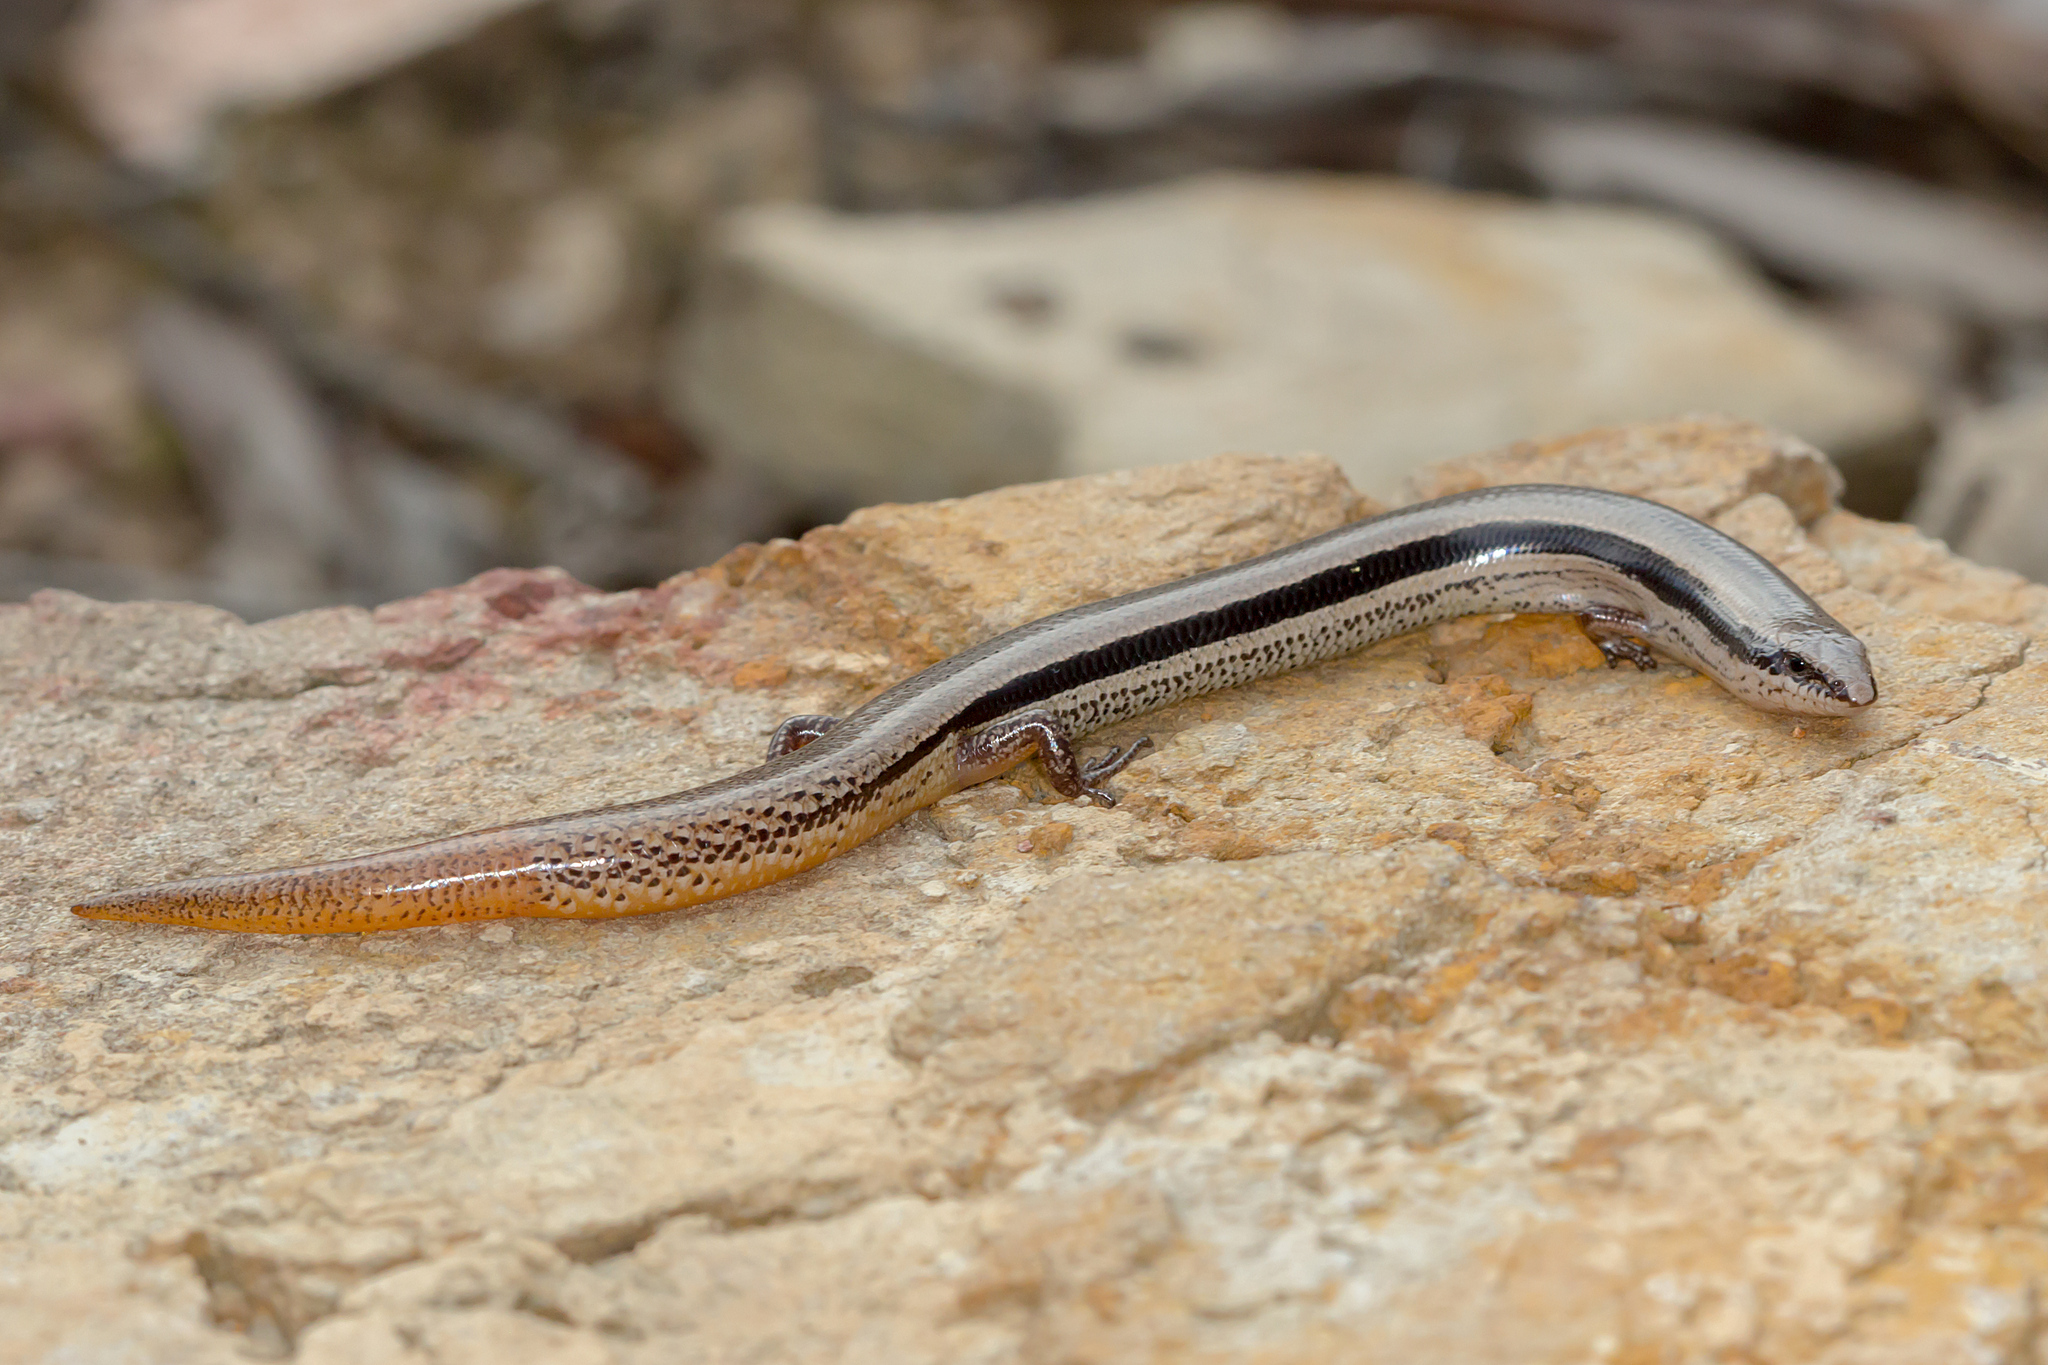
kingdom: Animalia
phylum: Chordata
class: Squamata
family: Scincidae
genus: Lerista
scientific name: Lerista bougainvillii
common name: South-eastern slider
